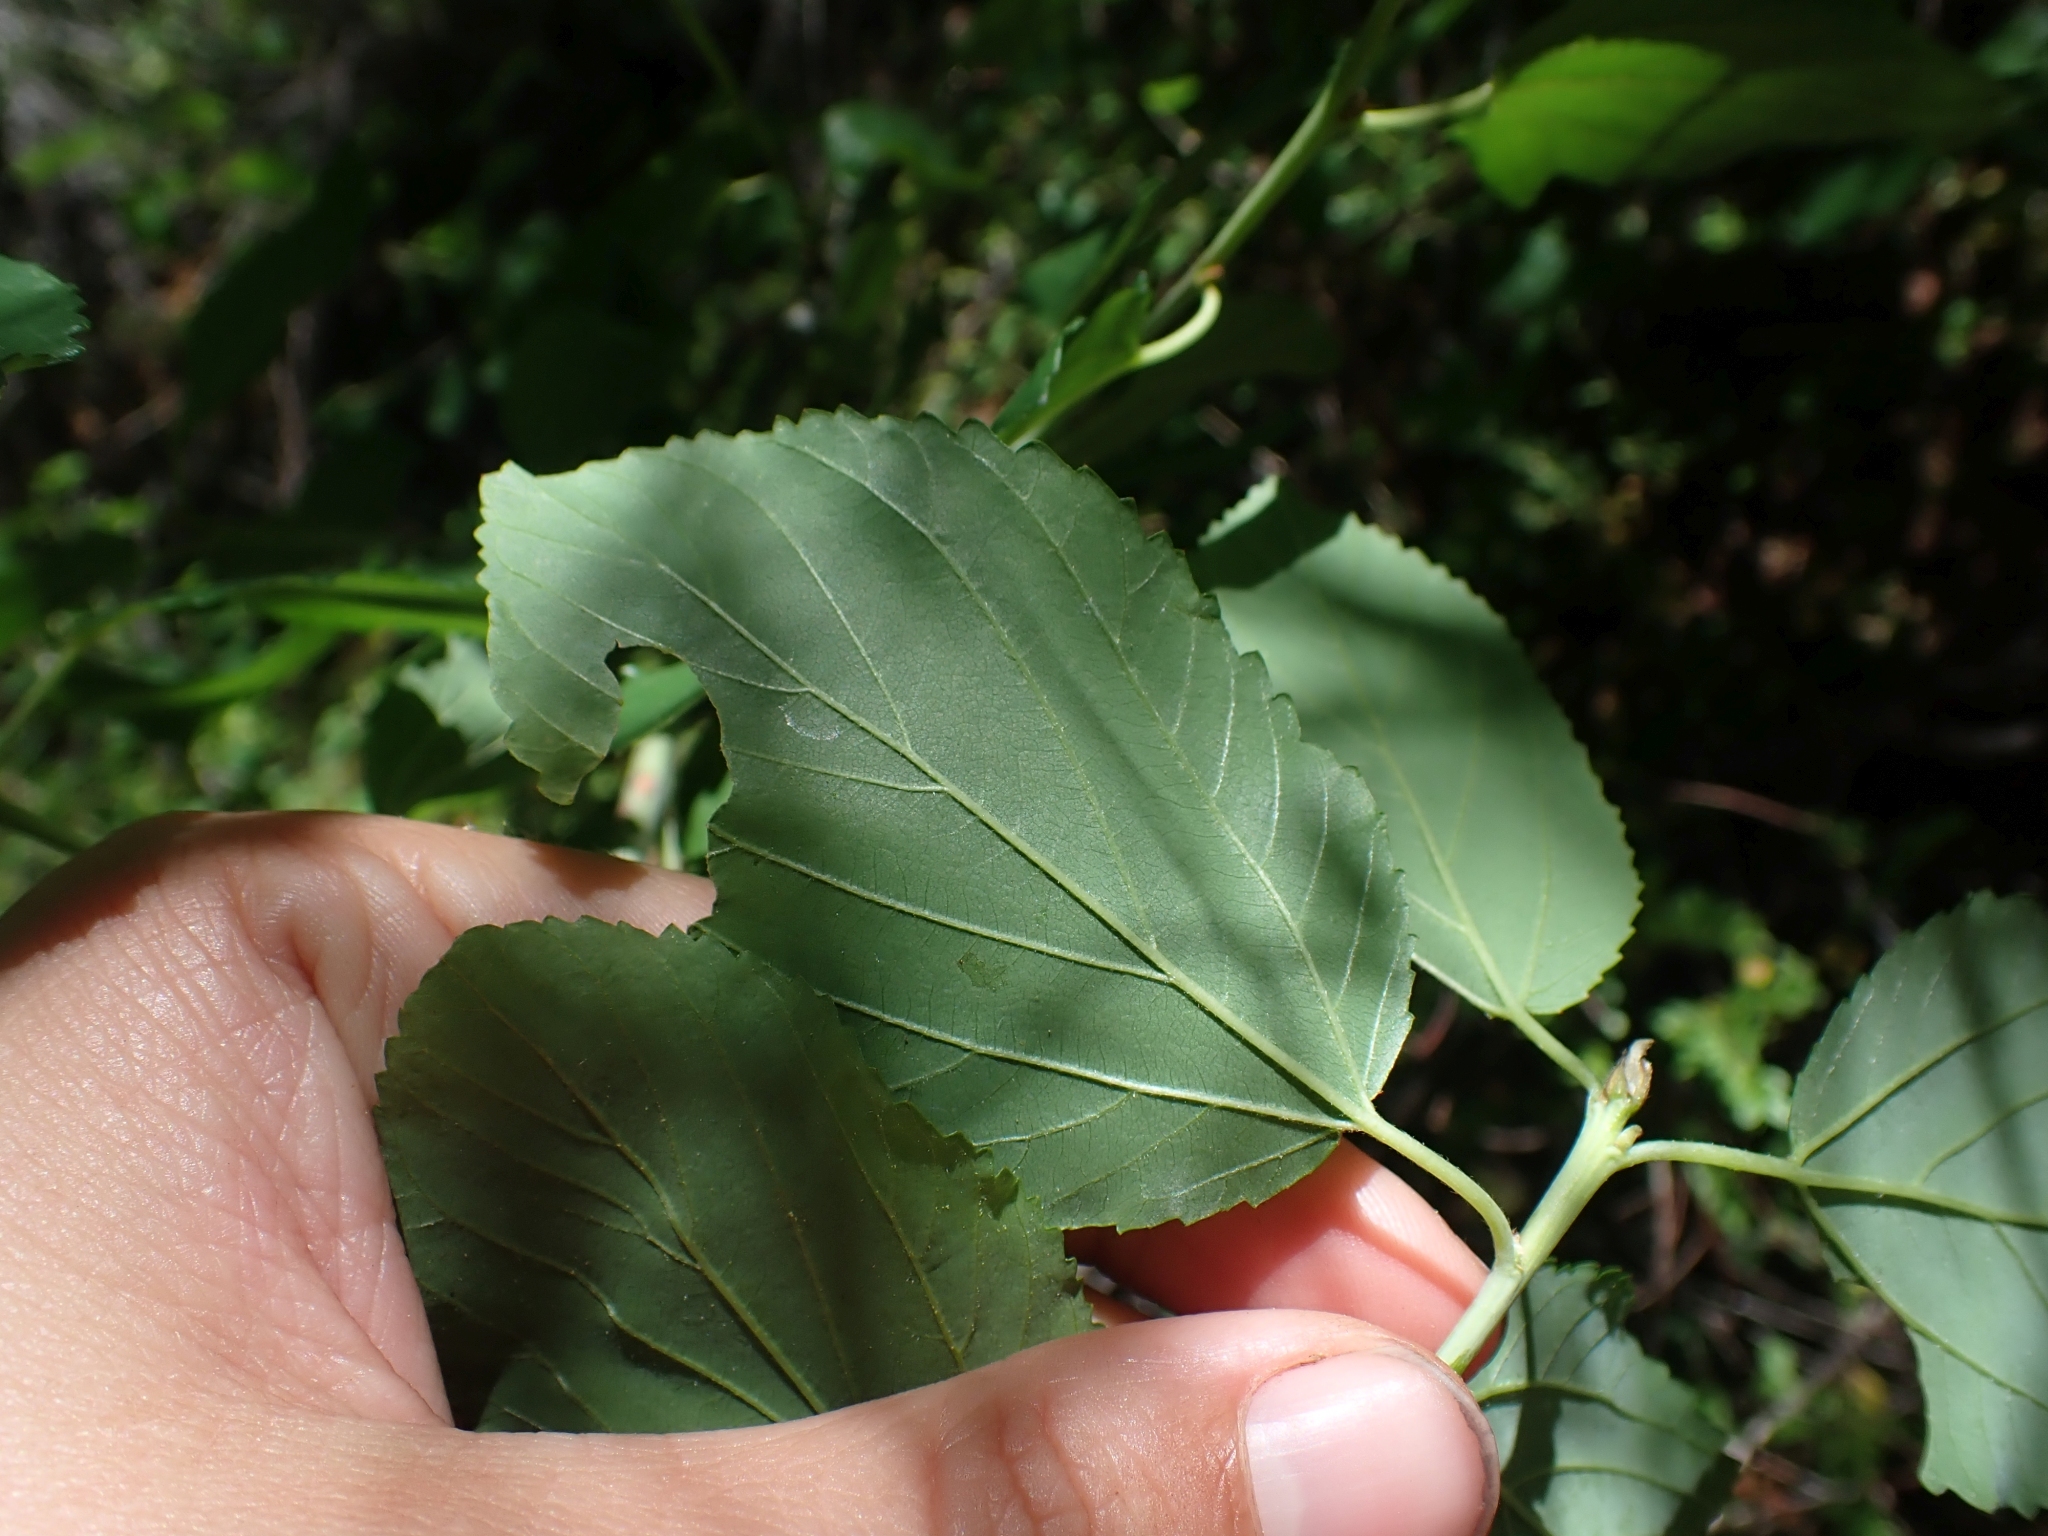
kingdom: Plantae
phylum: Tracheophyta
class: Magnoliopsida
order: Rosales
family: Rhamnaceae
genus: Ceanothus
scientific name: Ceanothus sanguineus
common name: Teatree
